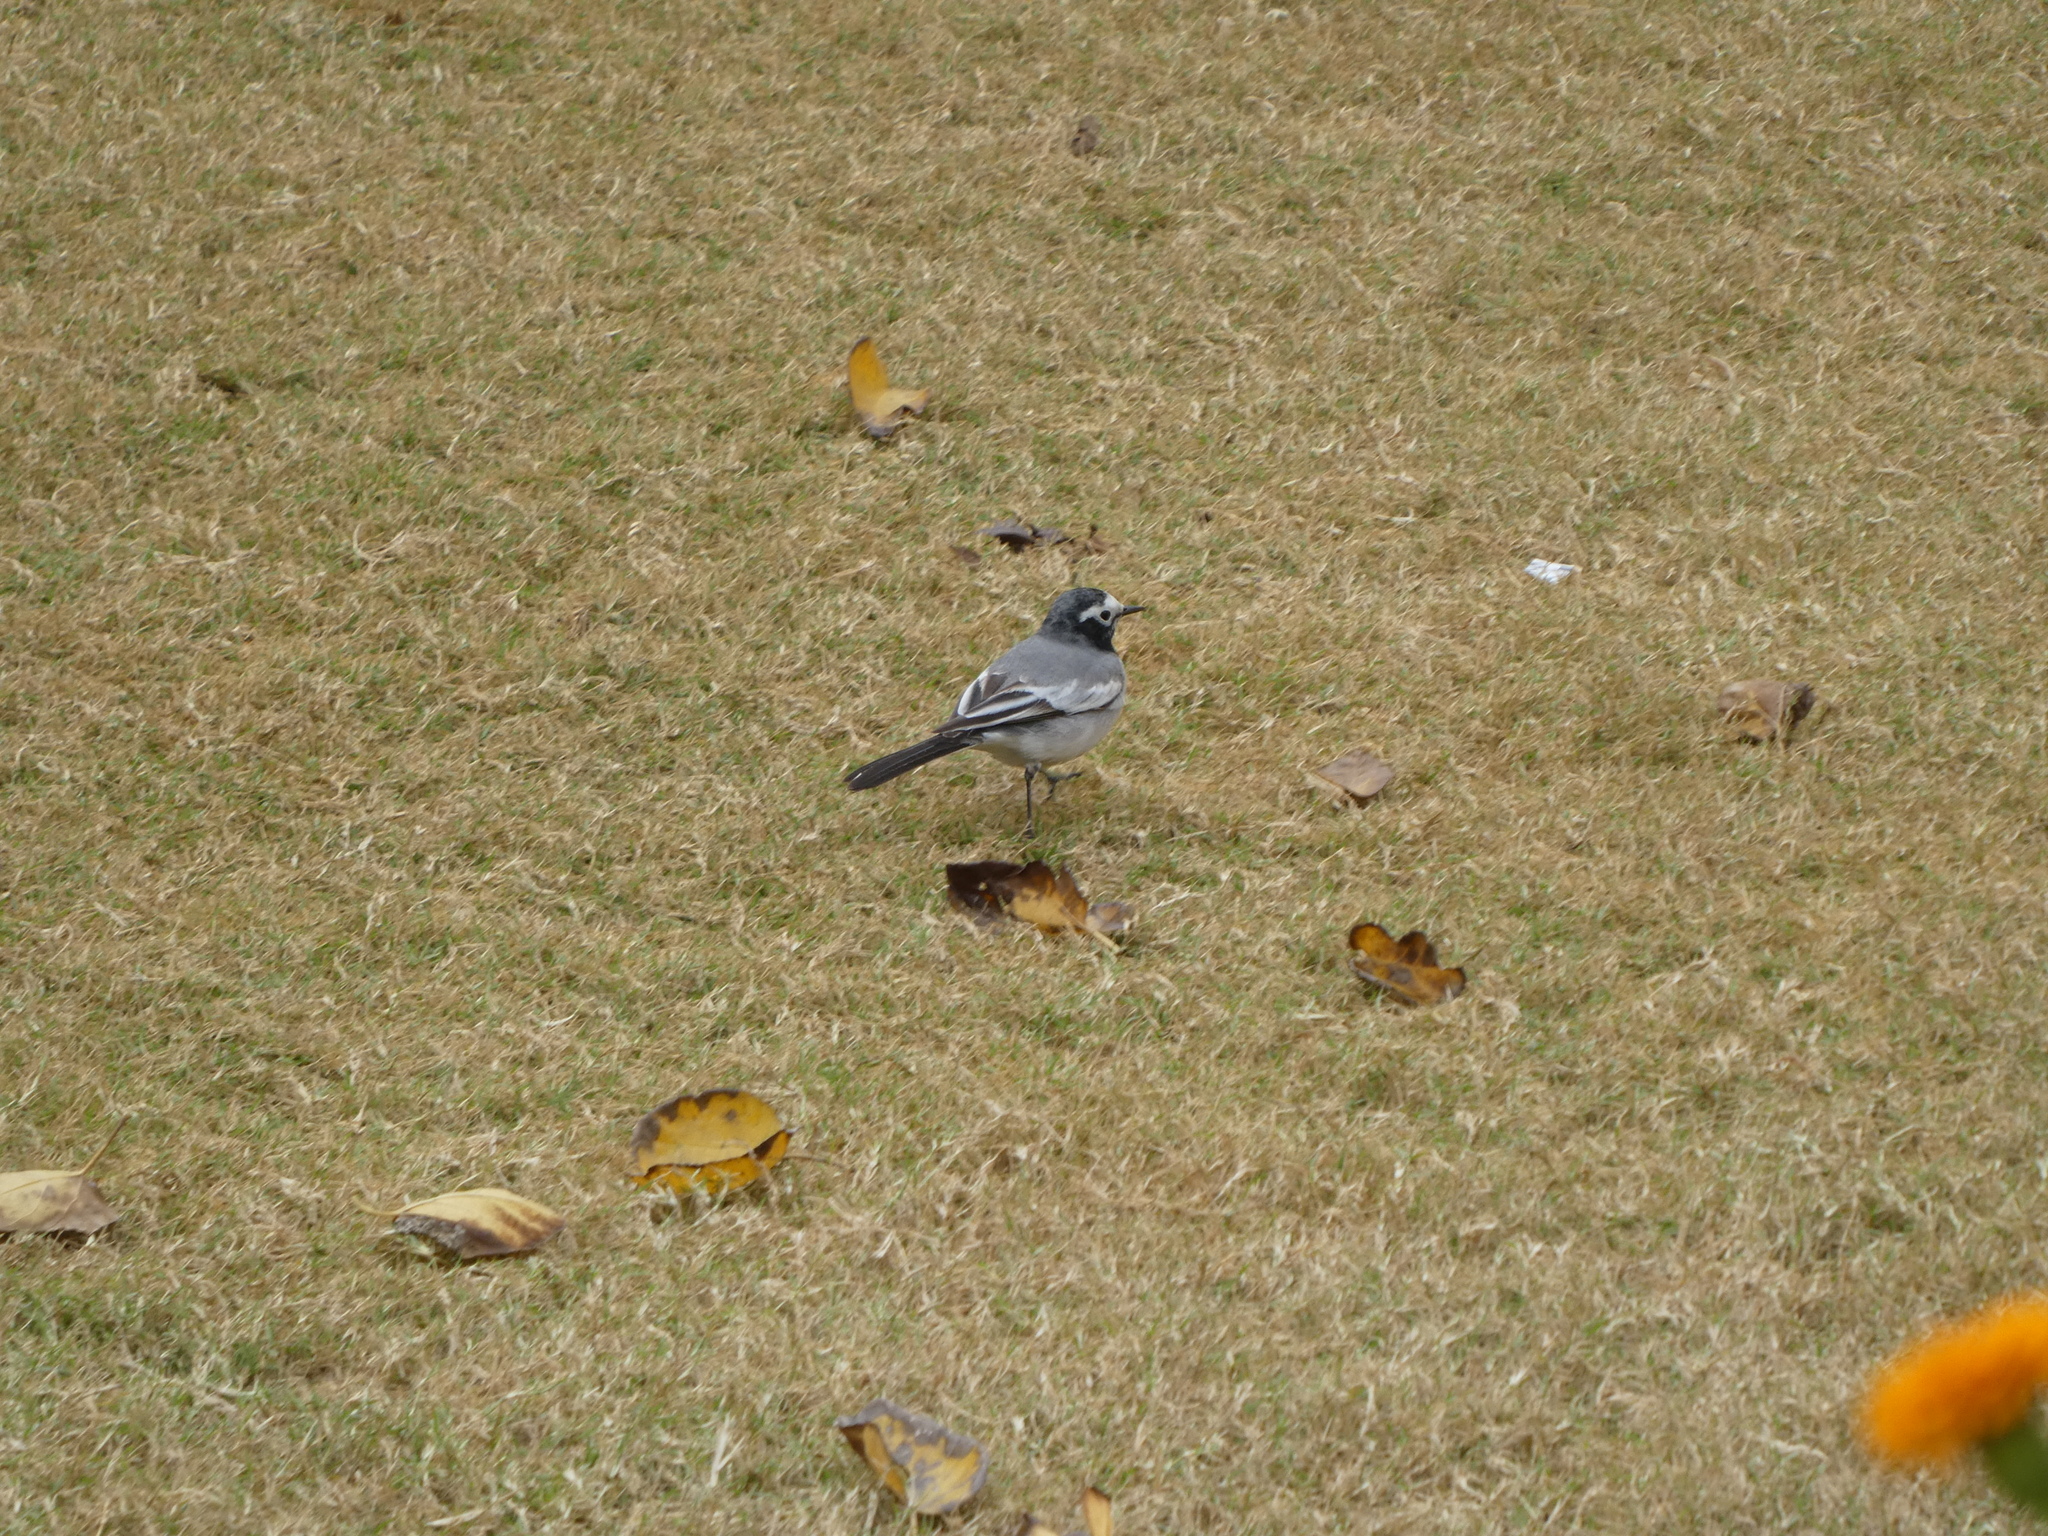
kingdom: Animalia
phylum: Chordata
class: Aves
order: Passeriformes
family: Motacillidae
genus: Motacilla
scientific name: Motacilla alba
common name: White wagtail
